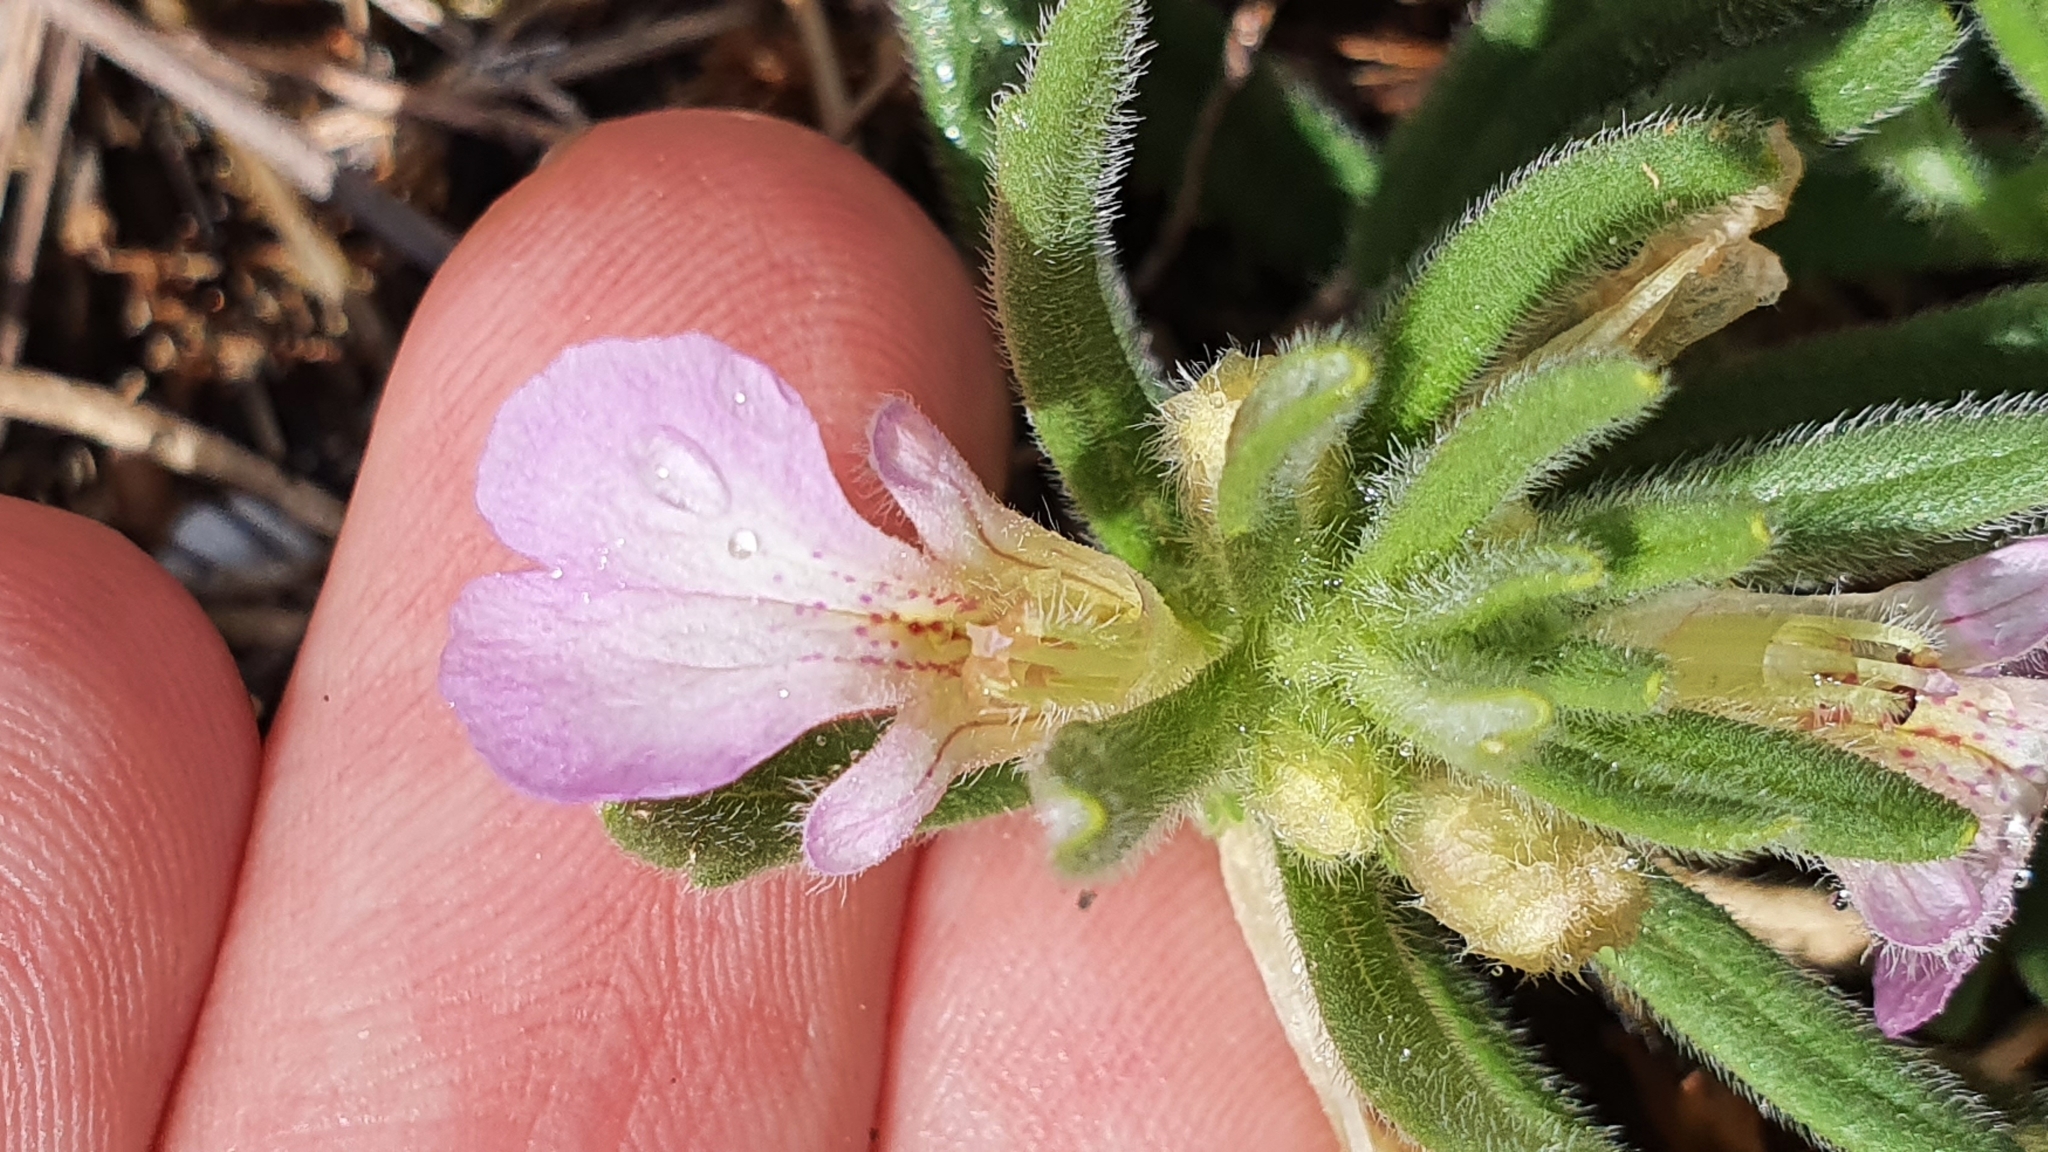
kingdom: Plantae
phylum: Tracheophyta
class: Magnoliopsida
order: Lamiales
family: Lamiaceae
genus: Ajuga
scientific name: Ajuga iva
